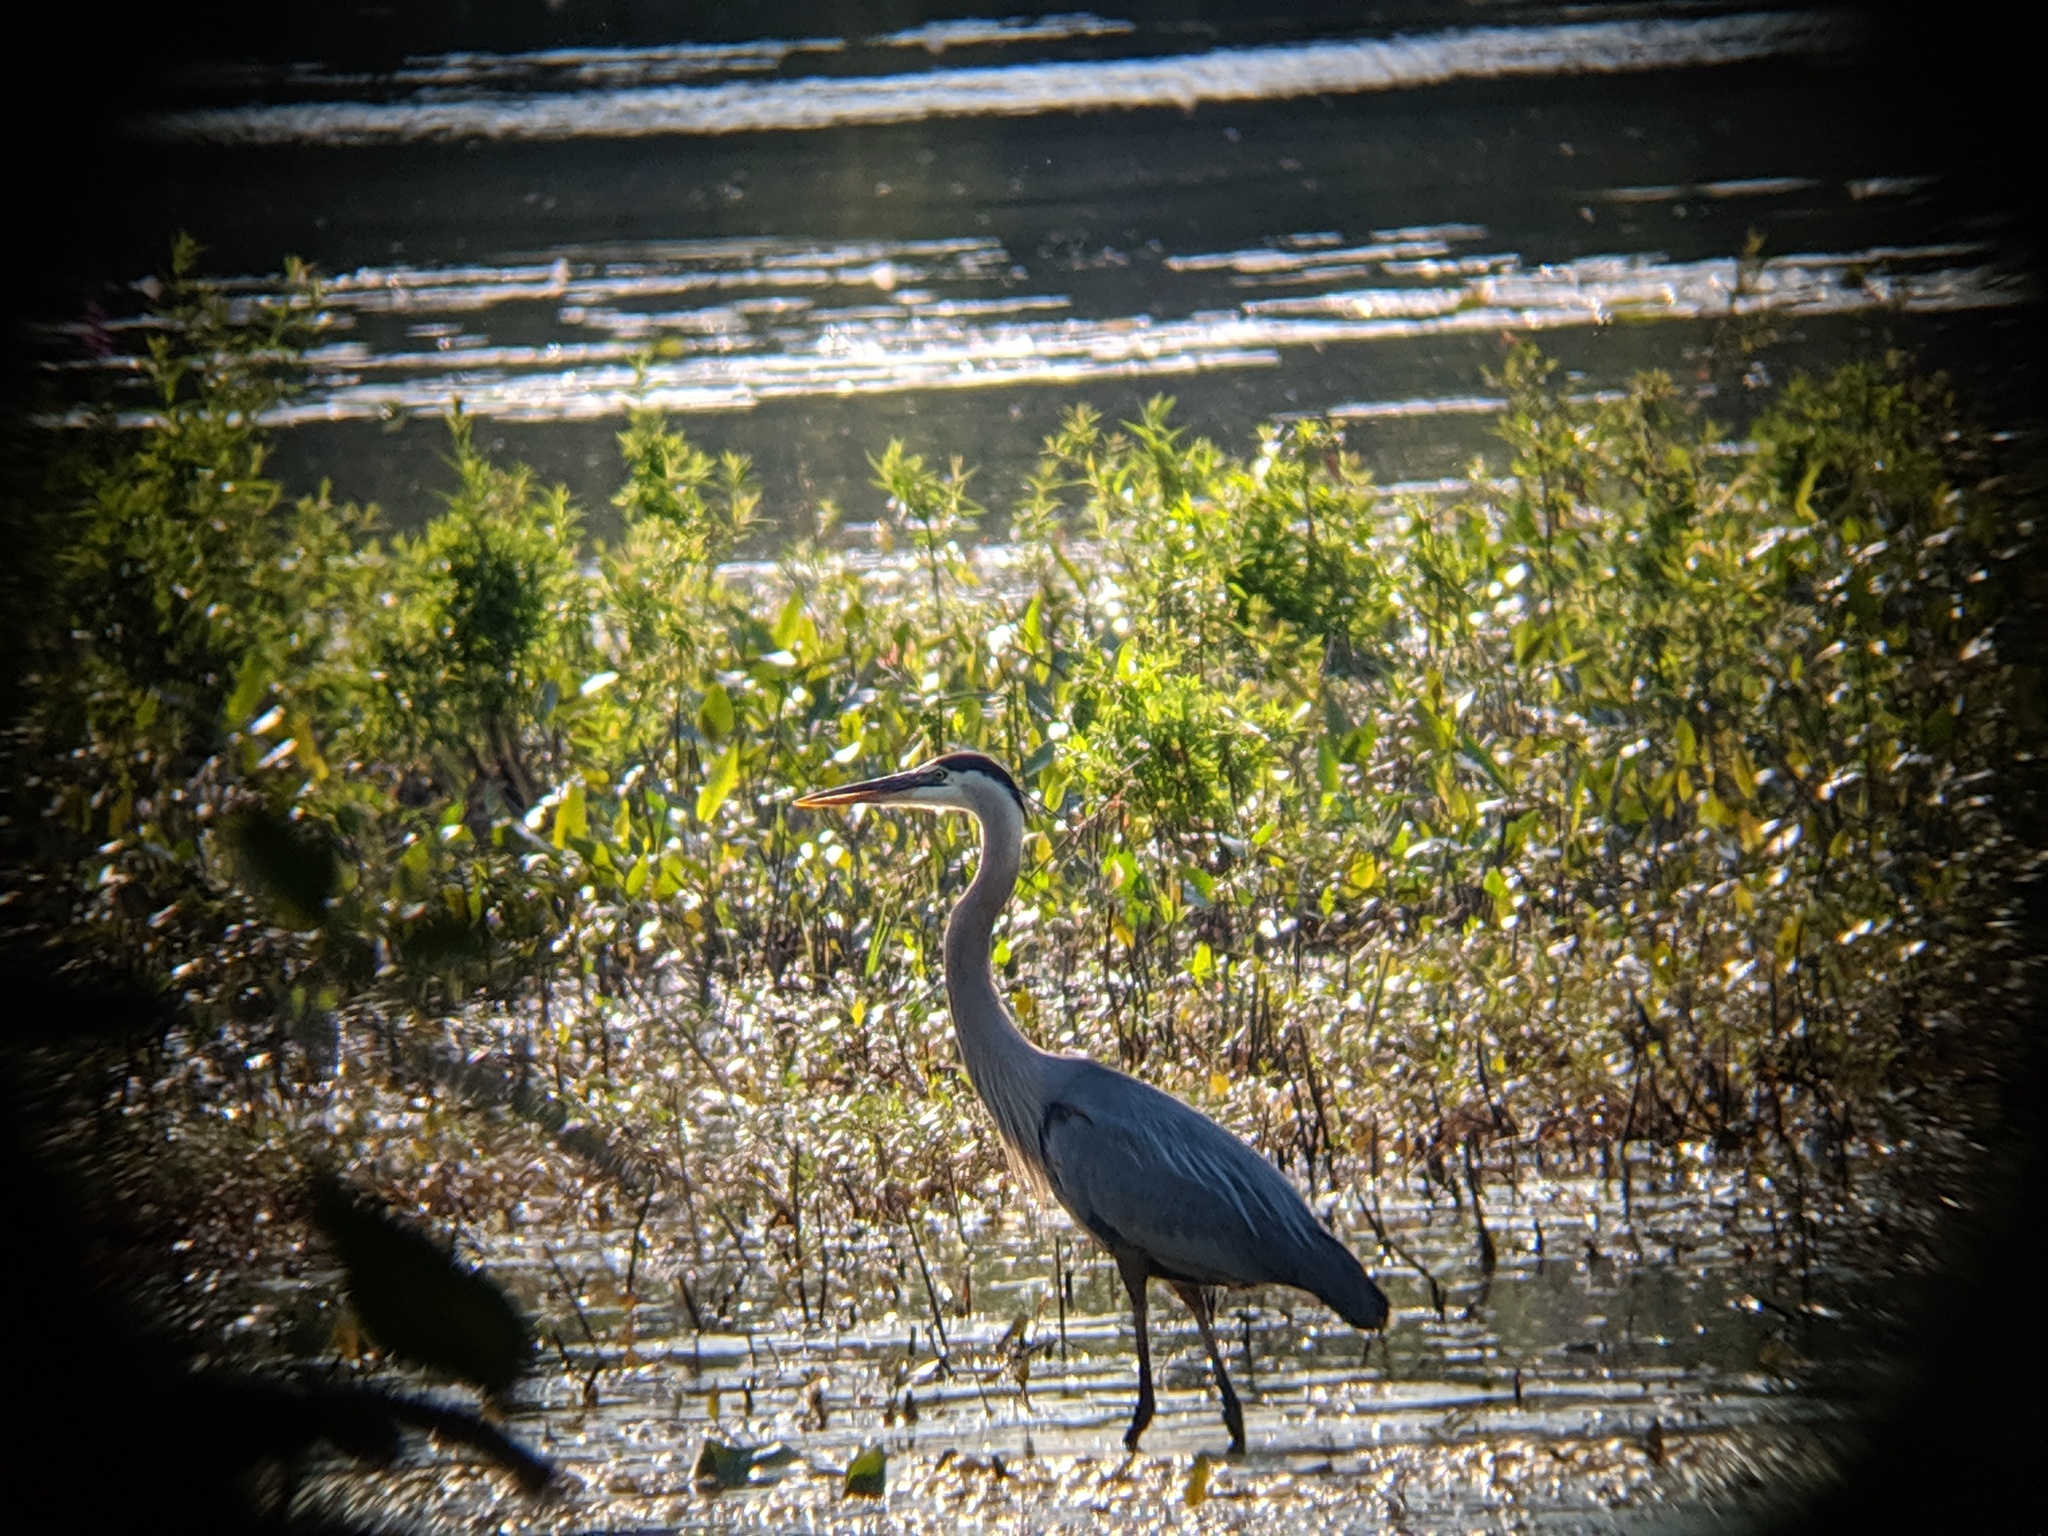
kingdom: Animalia
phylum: Chordata
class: Aves
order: Pelecaniformes
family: Ardeidae
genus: Ardea
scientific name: Ardea herodias
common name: Great blue heron
